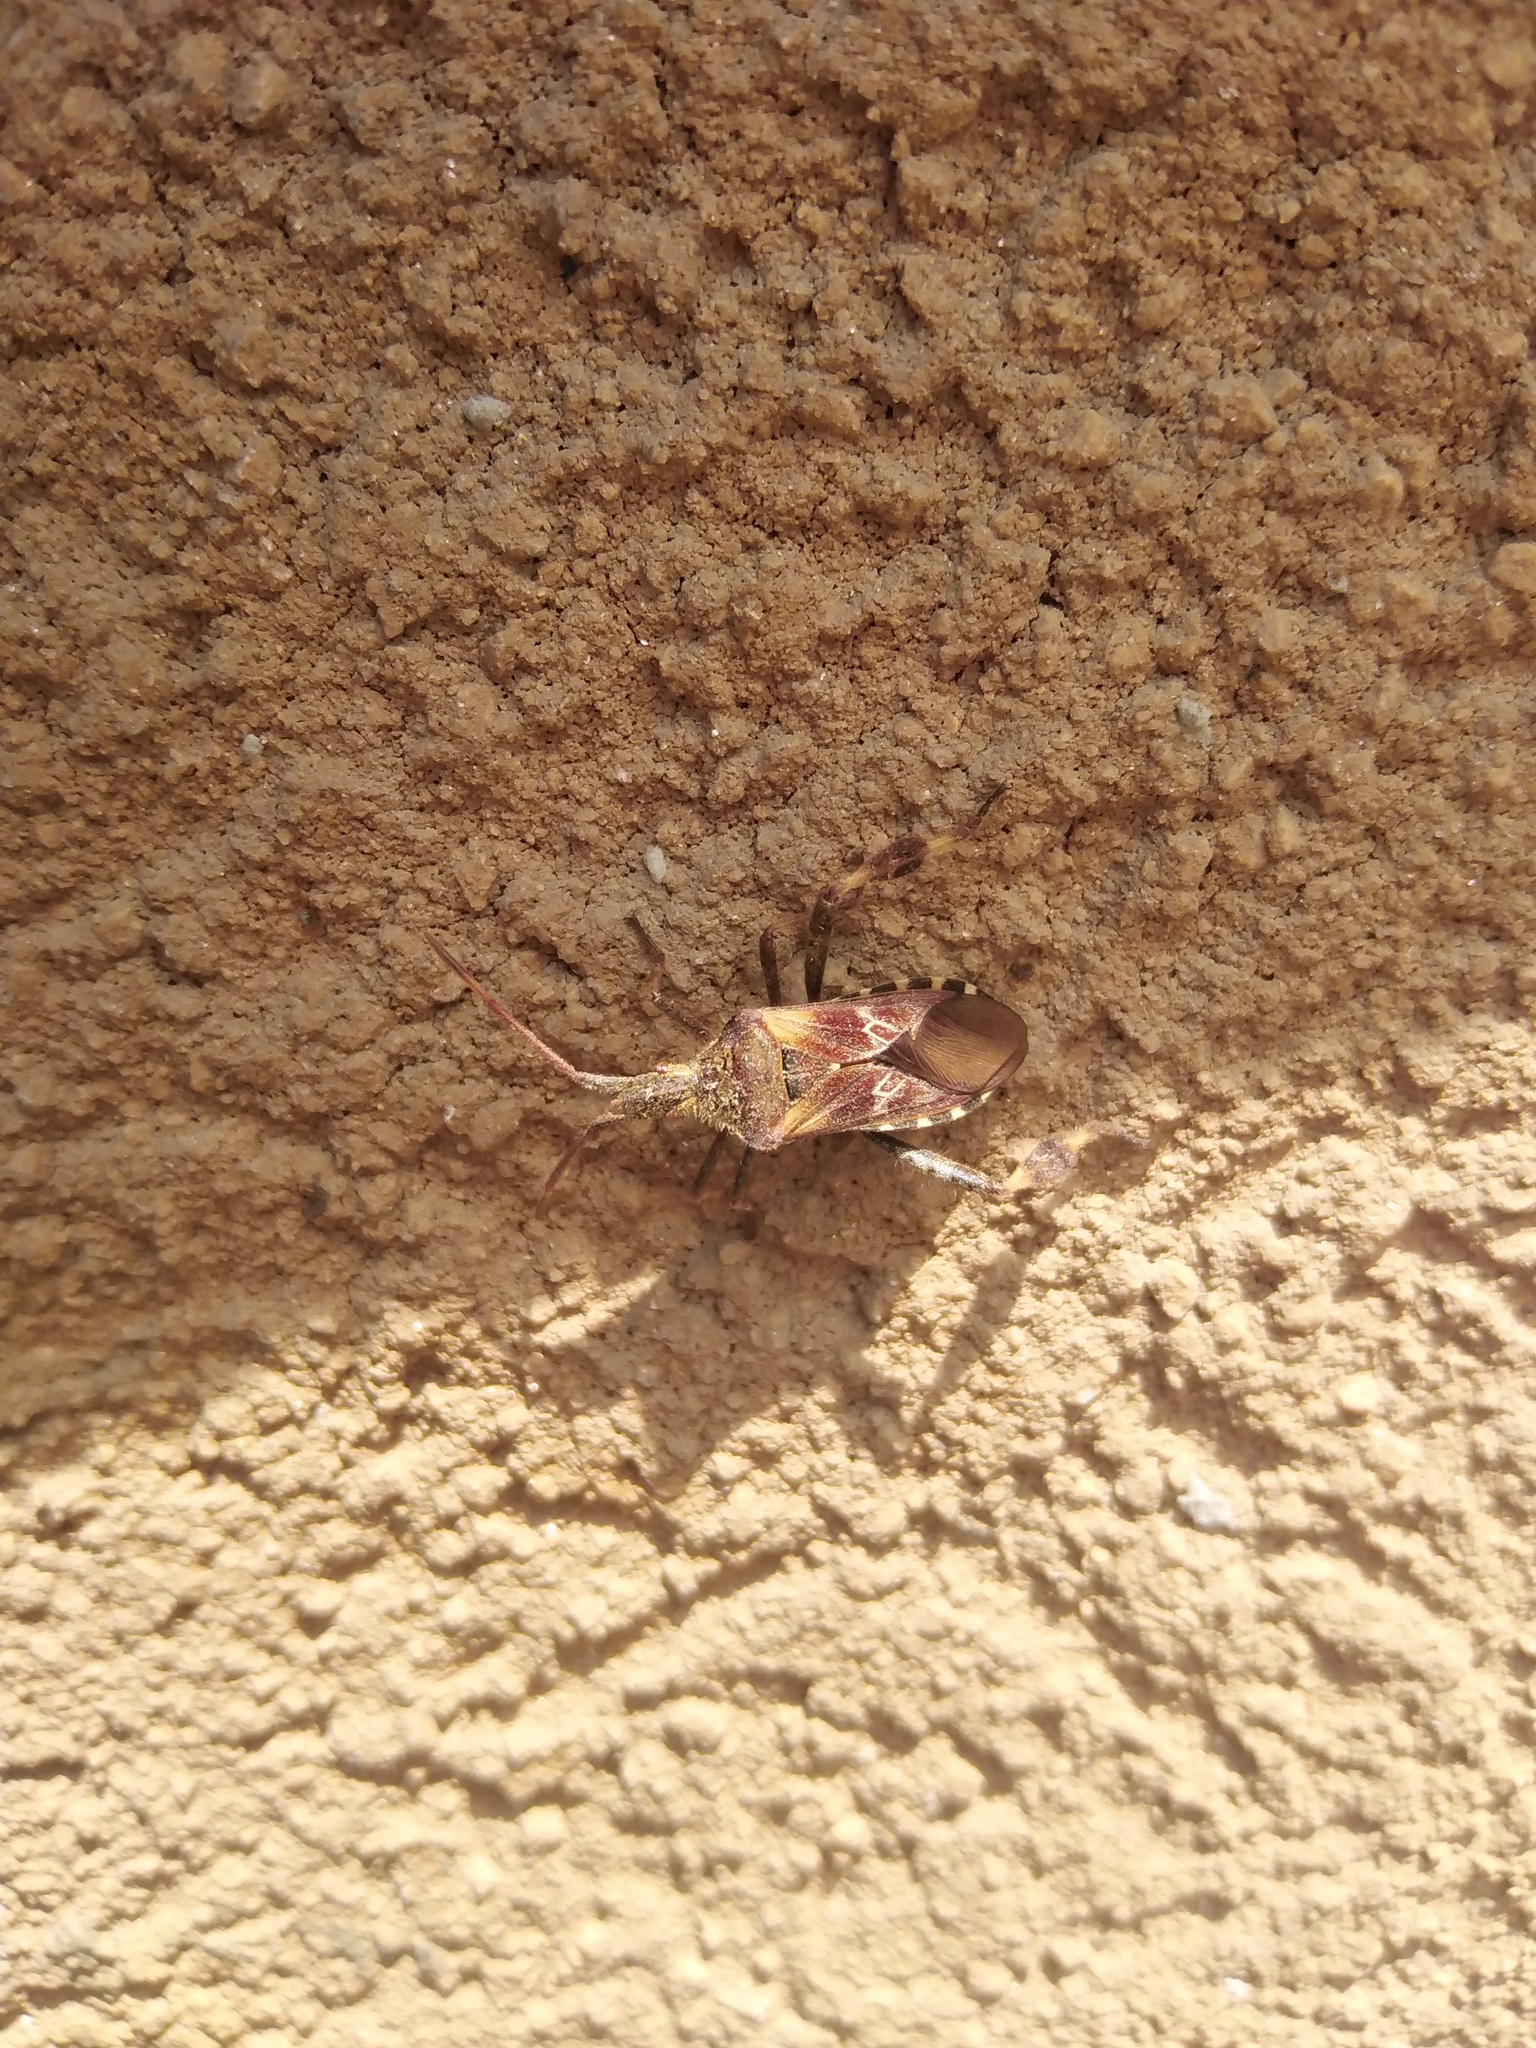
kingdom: Animalia
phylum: Arthropoda
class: Insecta
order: Hemiptera
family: Coreidae
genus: Leptoglossus
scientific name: Leptoglossus occidentalis
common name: Western conifer-seed bug
